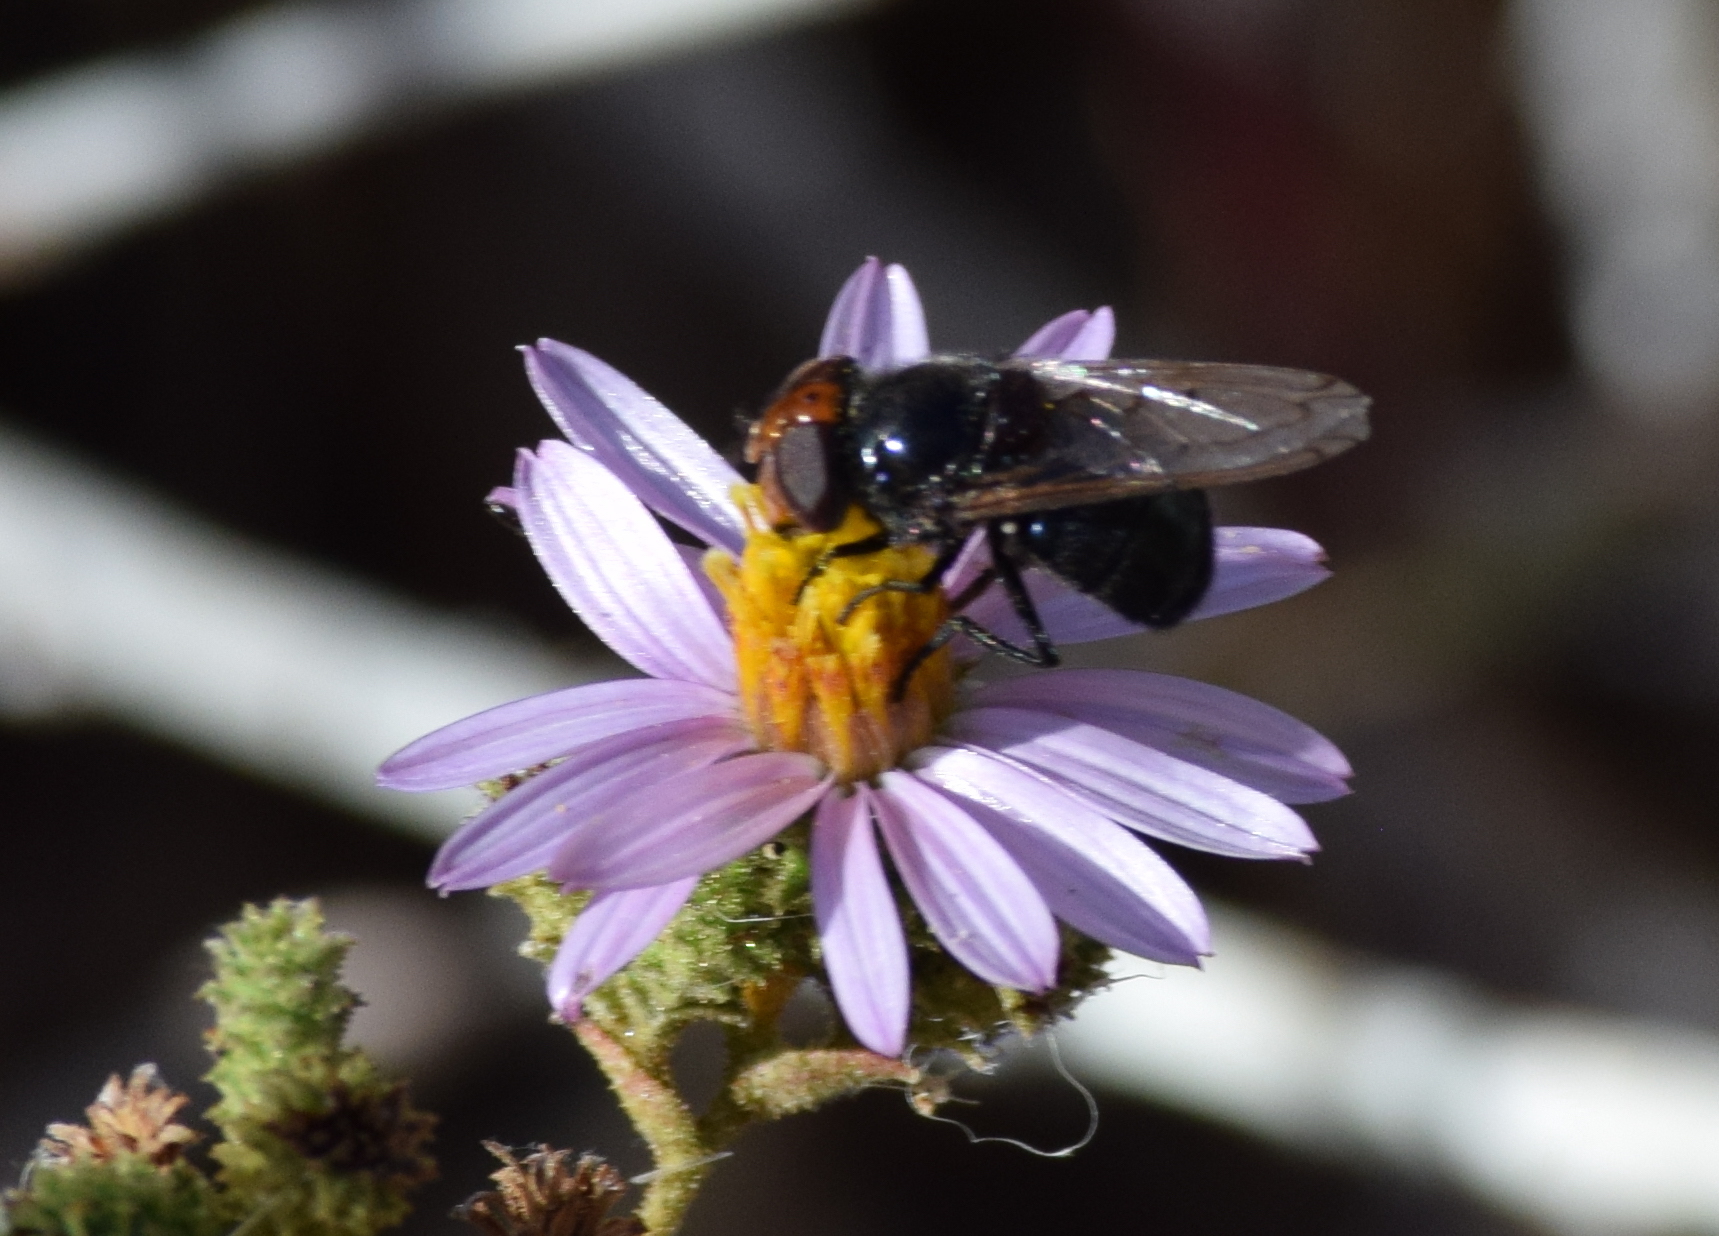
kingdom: Animalia
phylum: Arthropoda
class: Insecta
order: Diptera
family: Syrphidae
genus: Copestylum
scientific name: Copestylum victoria
